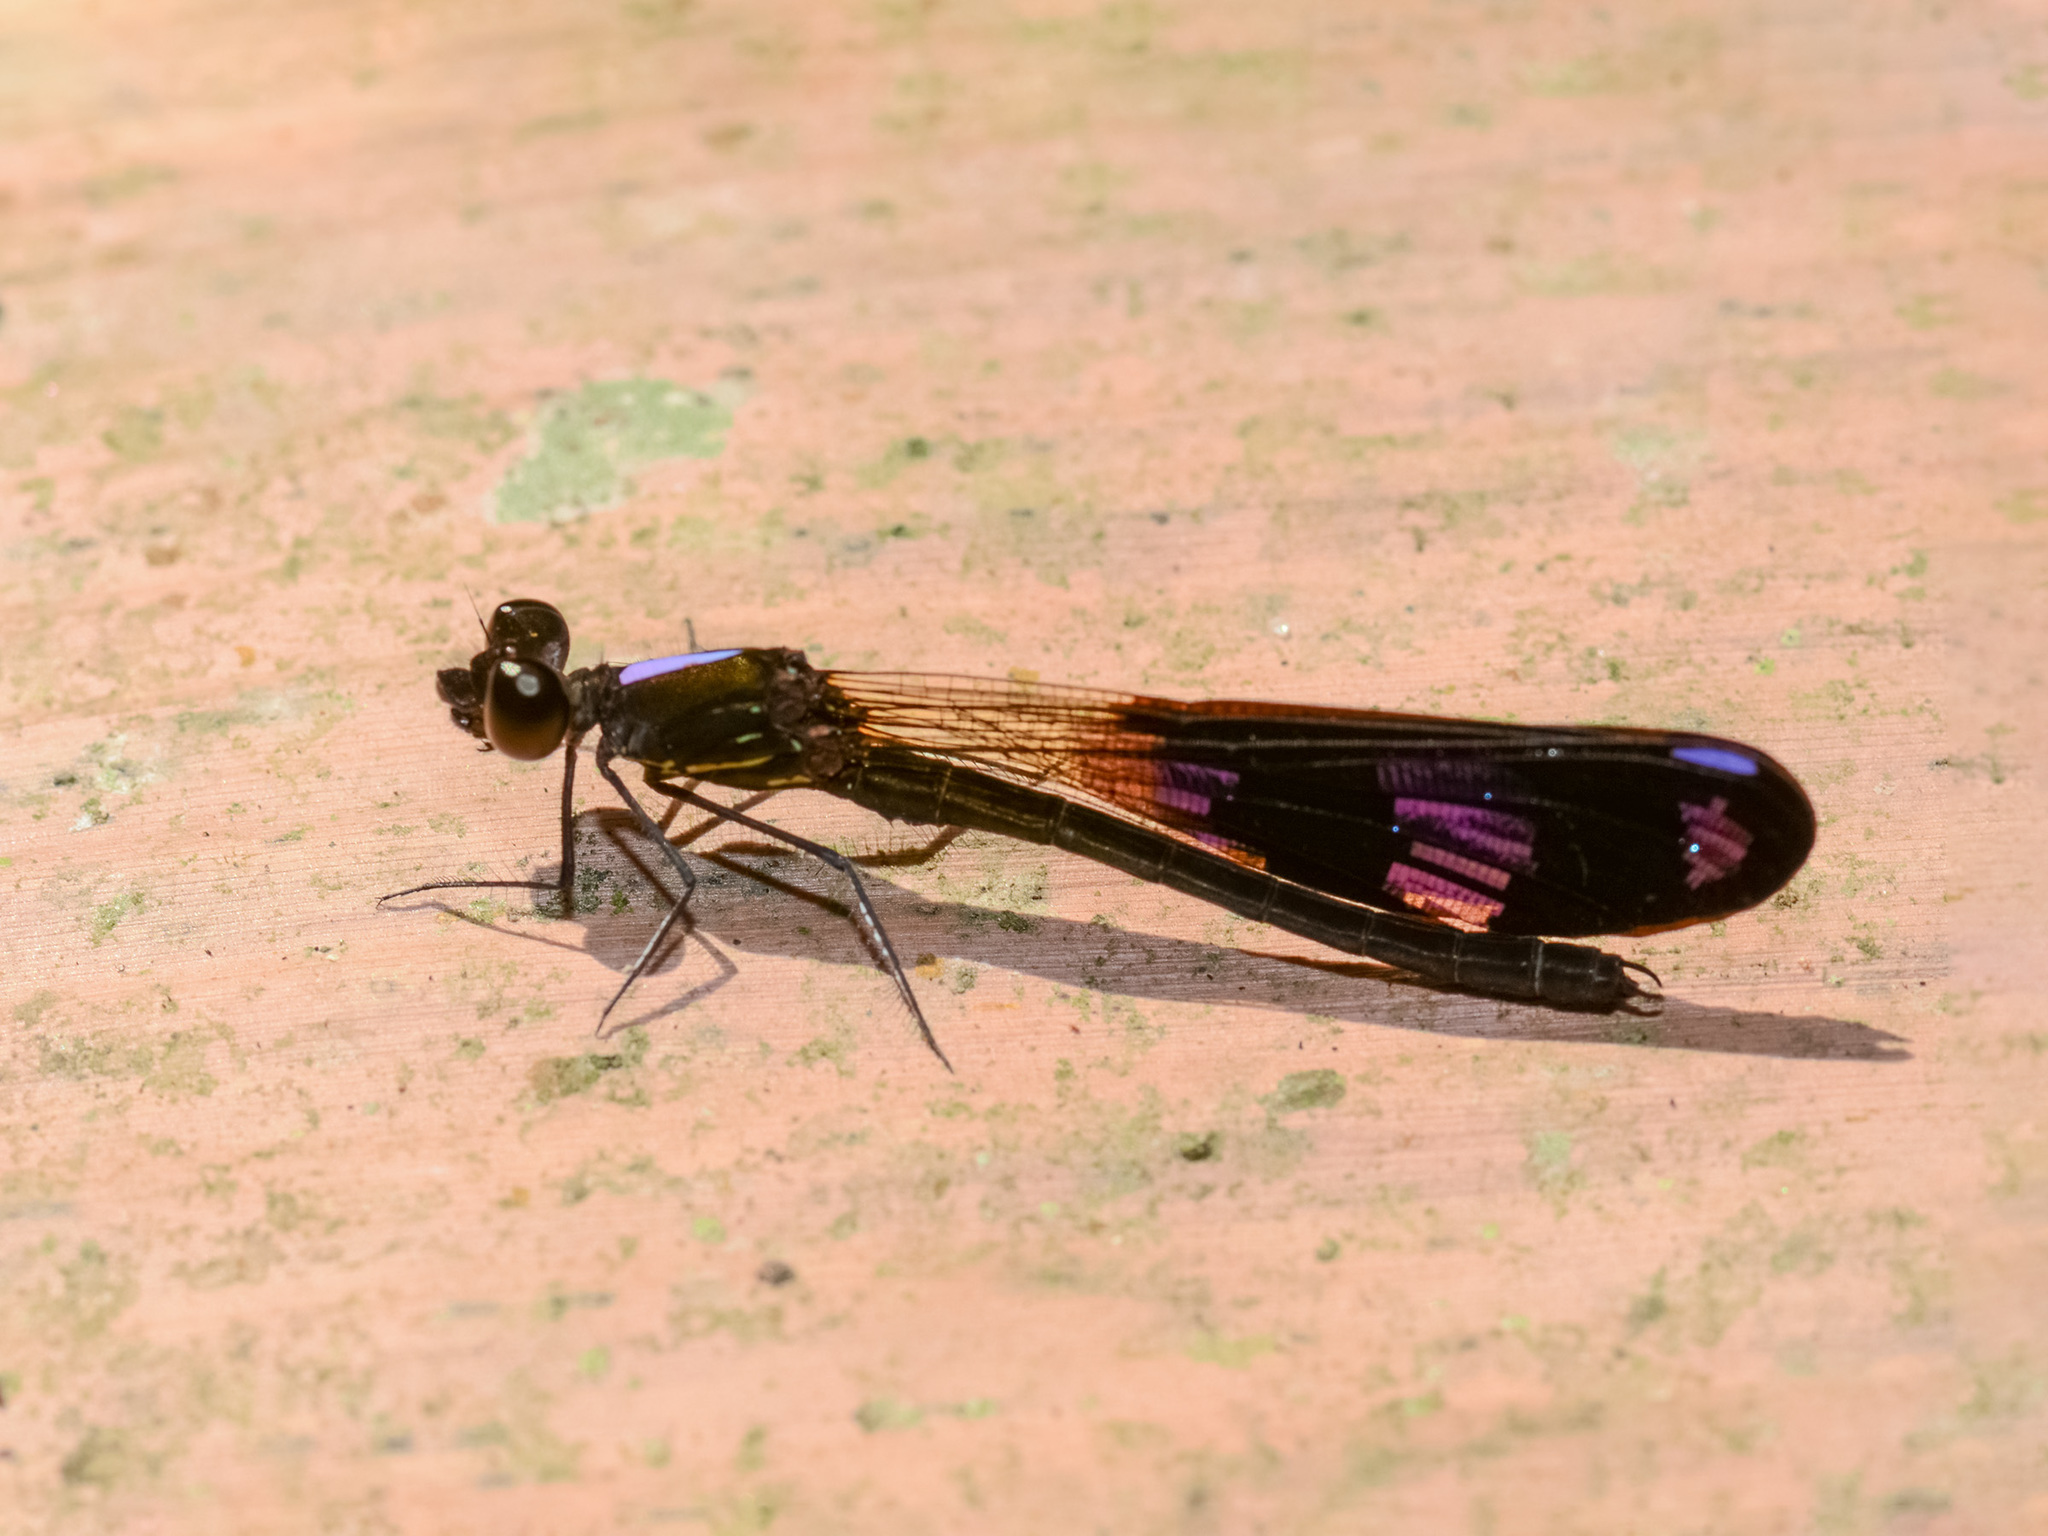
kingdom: Animalia
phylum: Arthropoda
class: Insecta
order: Odonata
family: Chlorocyphidae
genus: Aristocypha
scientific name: Aristocypha fenestrella
